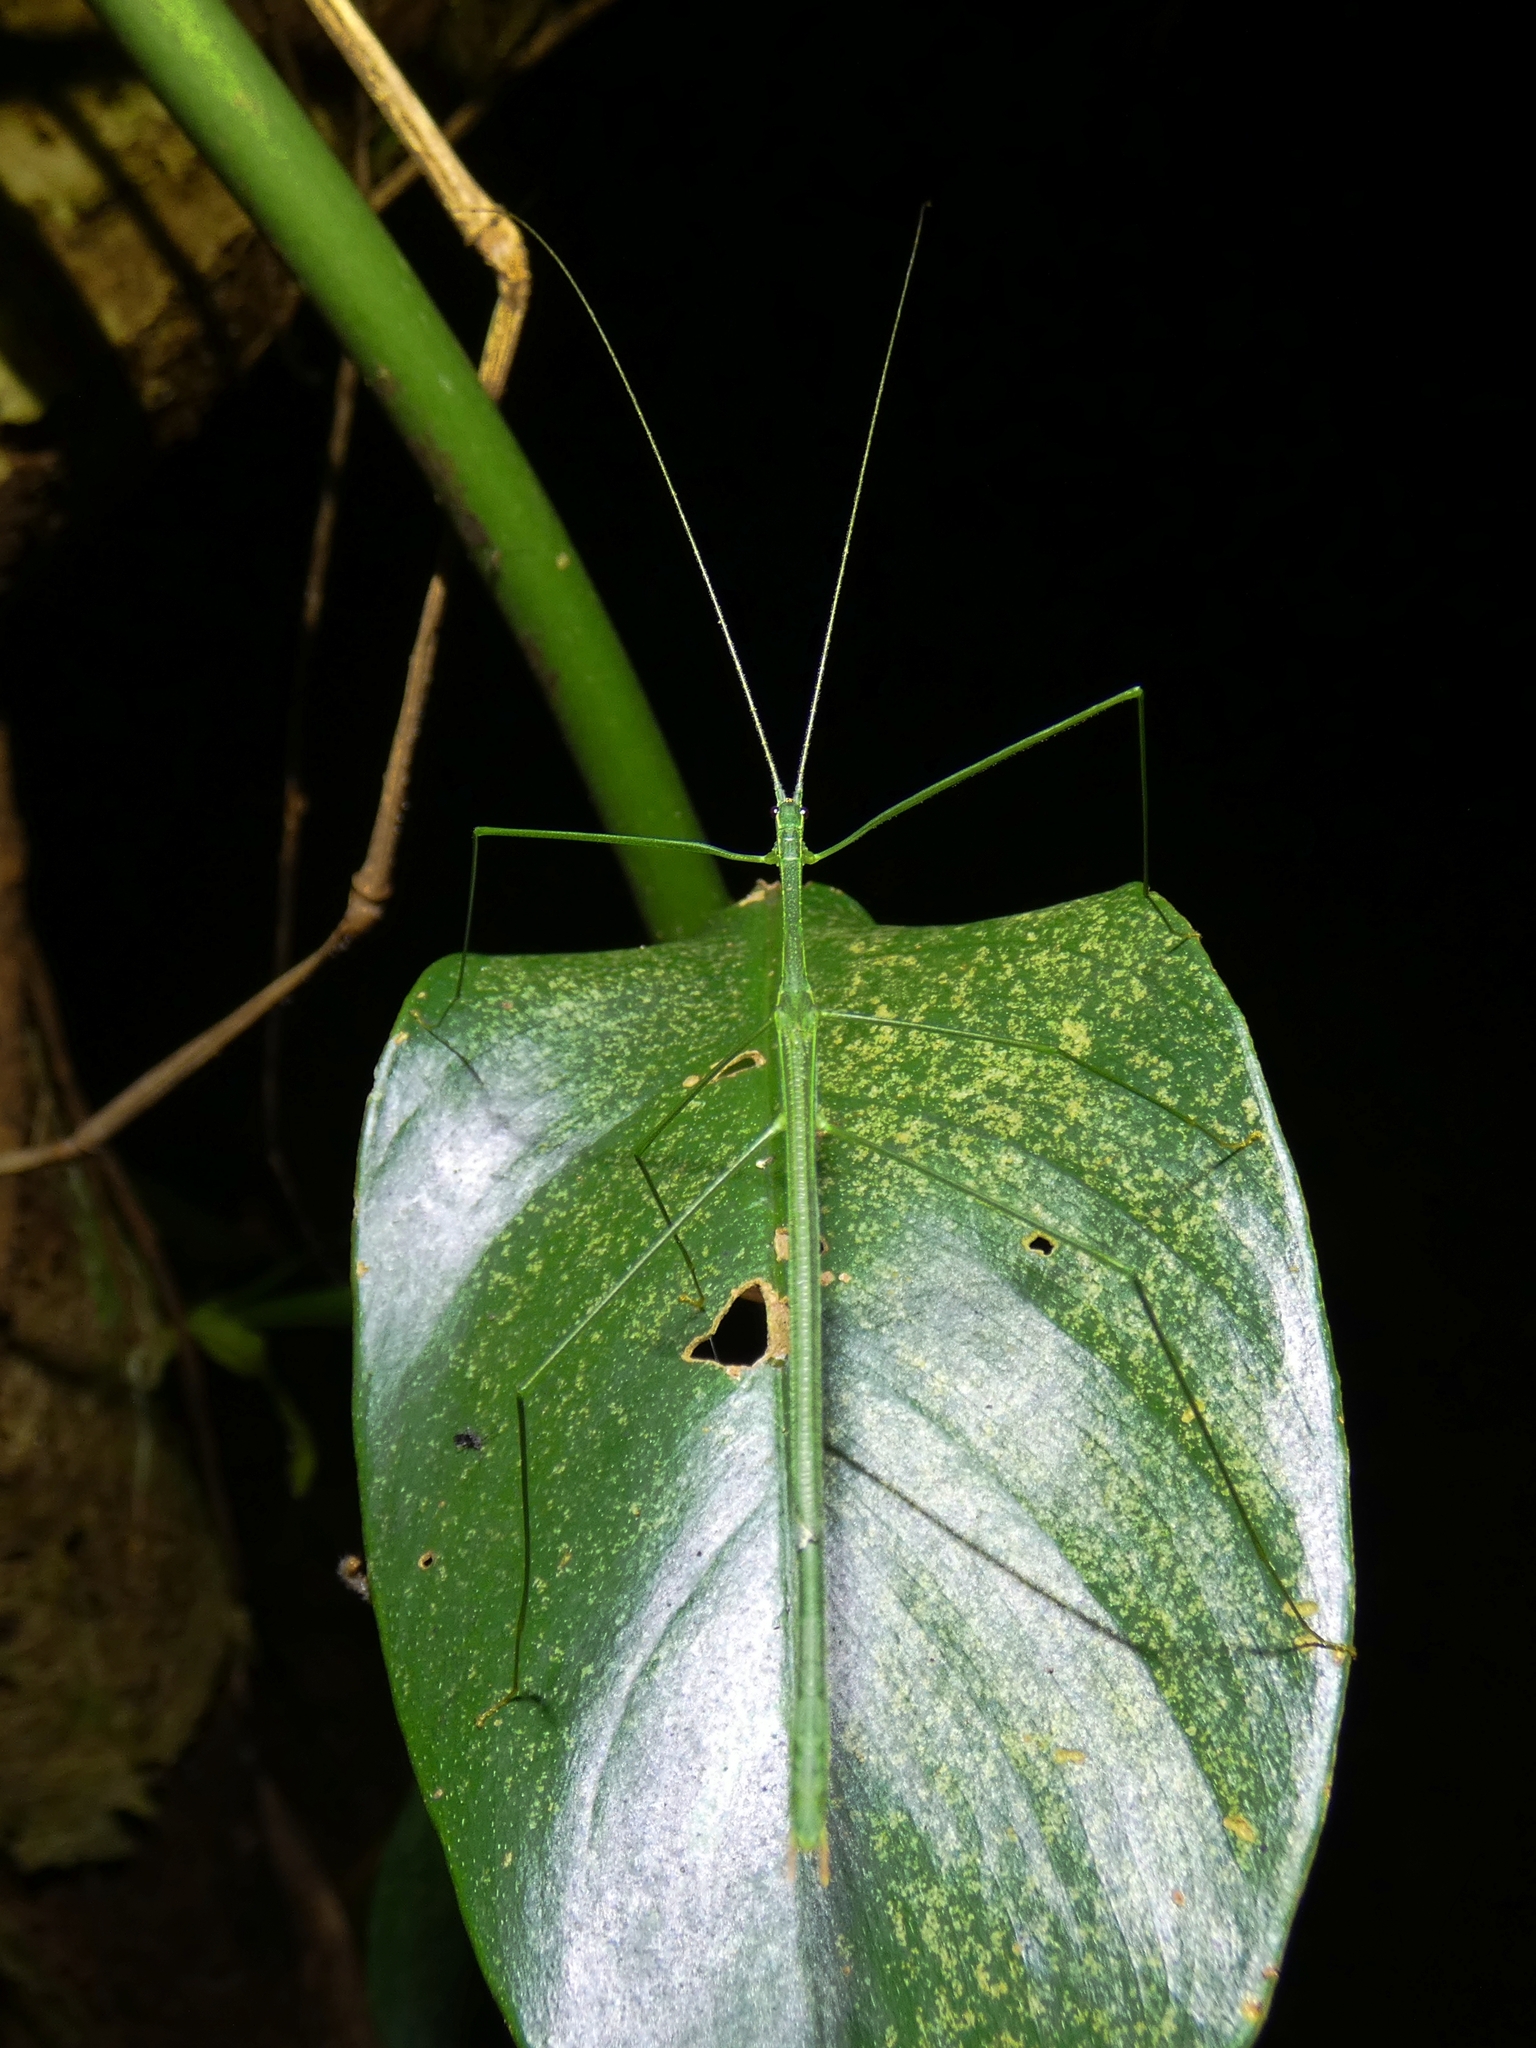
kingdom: Animalia
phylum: Arthropoda
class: Insecta
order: Phasmida
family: Lonchodidae
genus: Sipyloidea
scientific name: Sipyloidea rentzi
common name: Rentz's sipyloidea stick-insect
